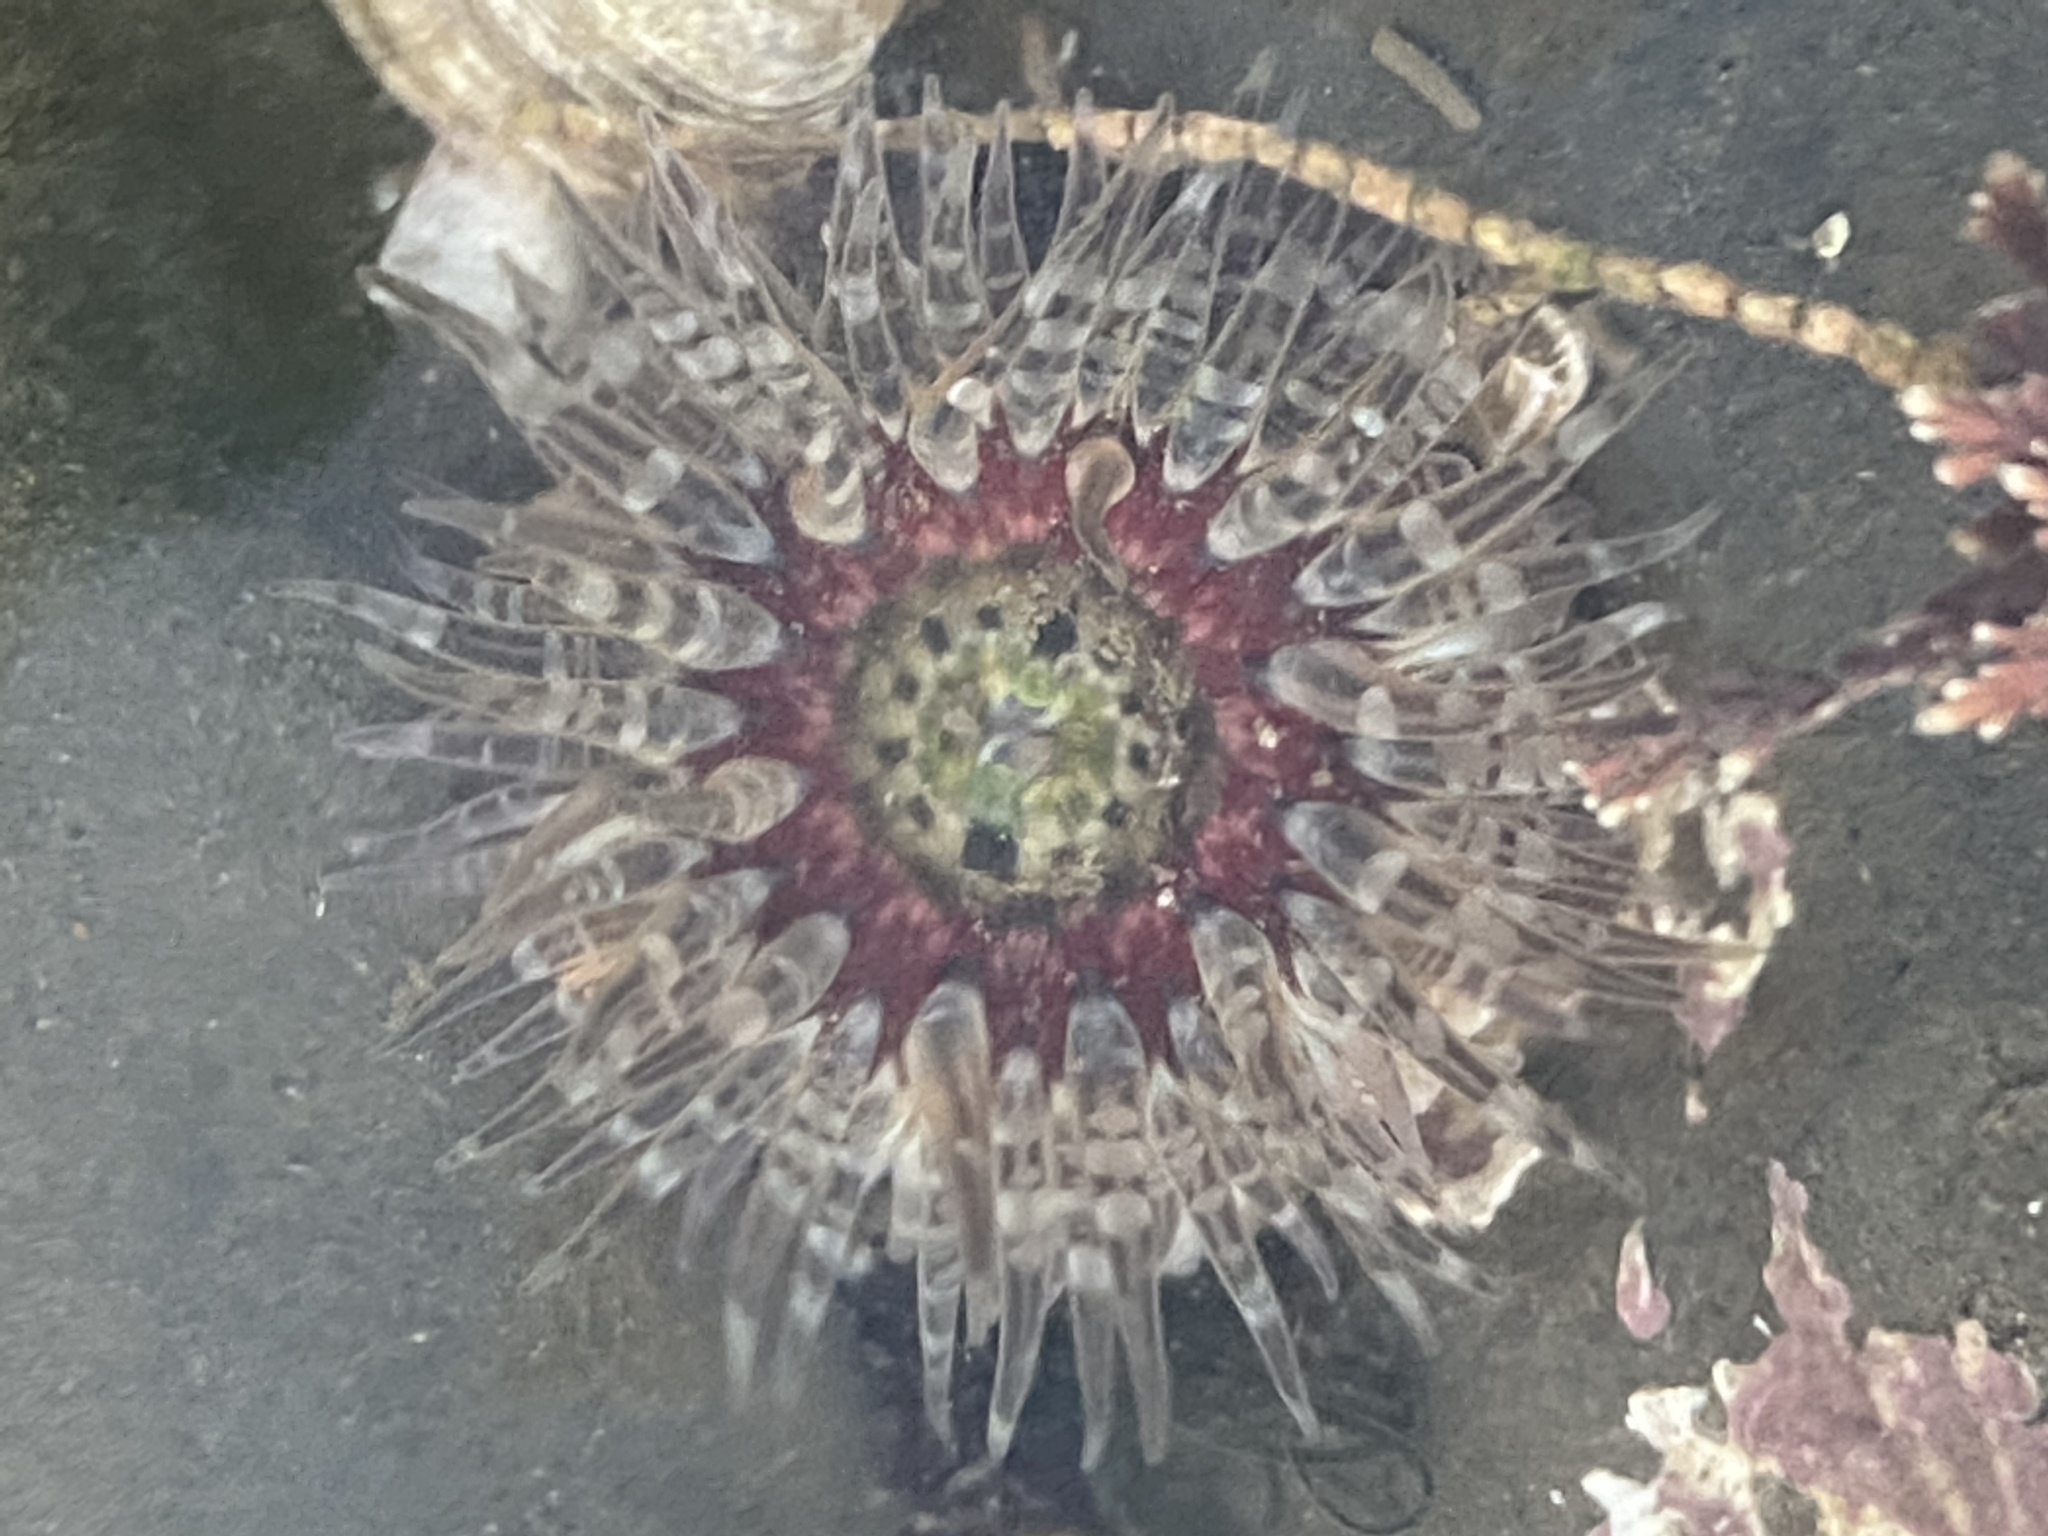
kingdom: Animalia
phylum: Cnidaria
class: Anthozoa
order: Actiniaria
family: Actiniidae
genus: Anthopleura
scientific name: Anthopleura artemisia
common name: Buried sea anemone
